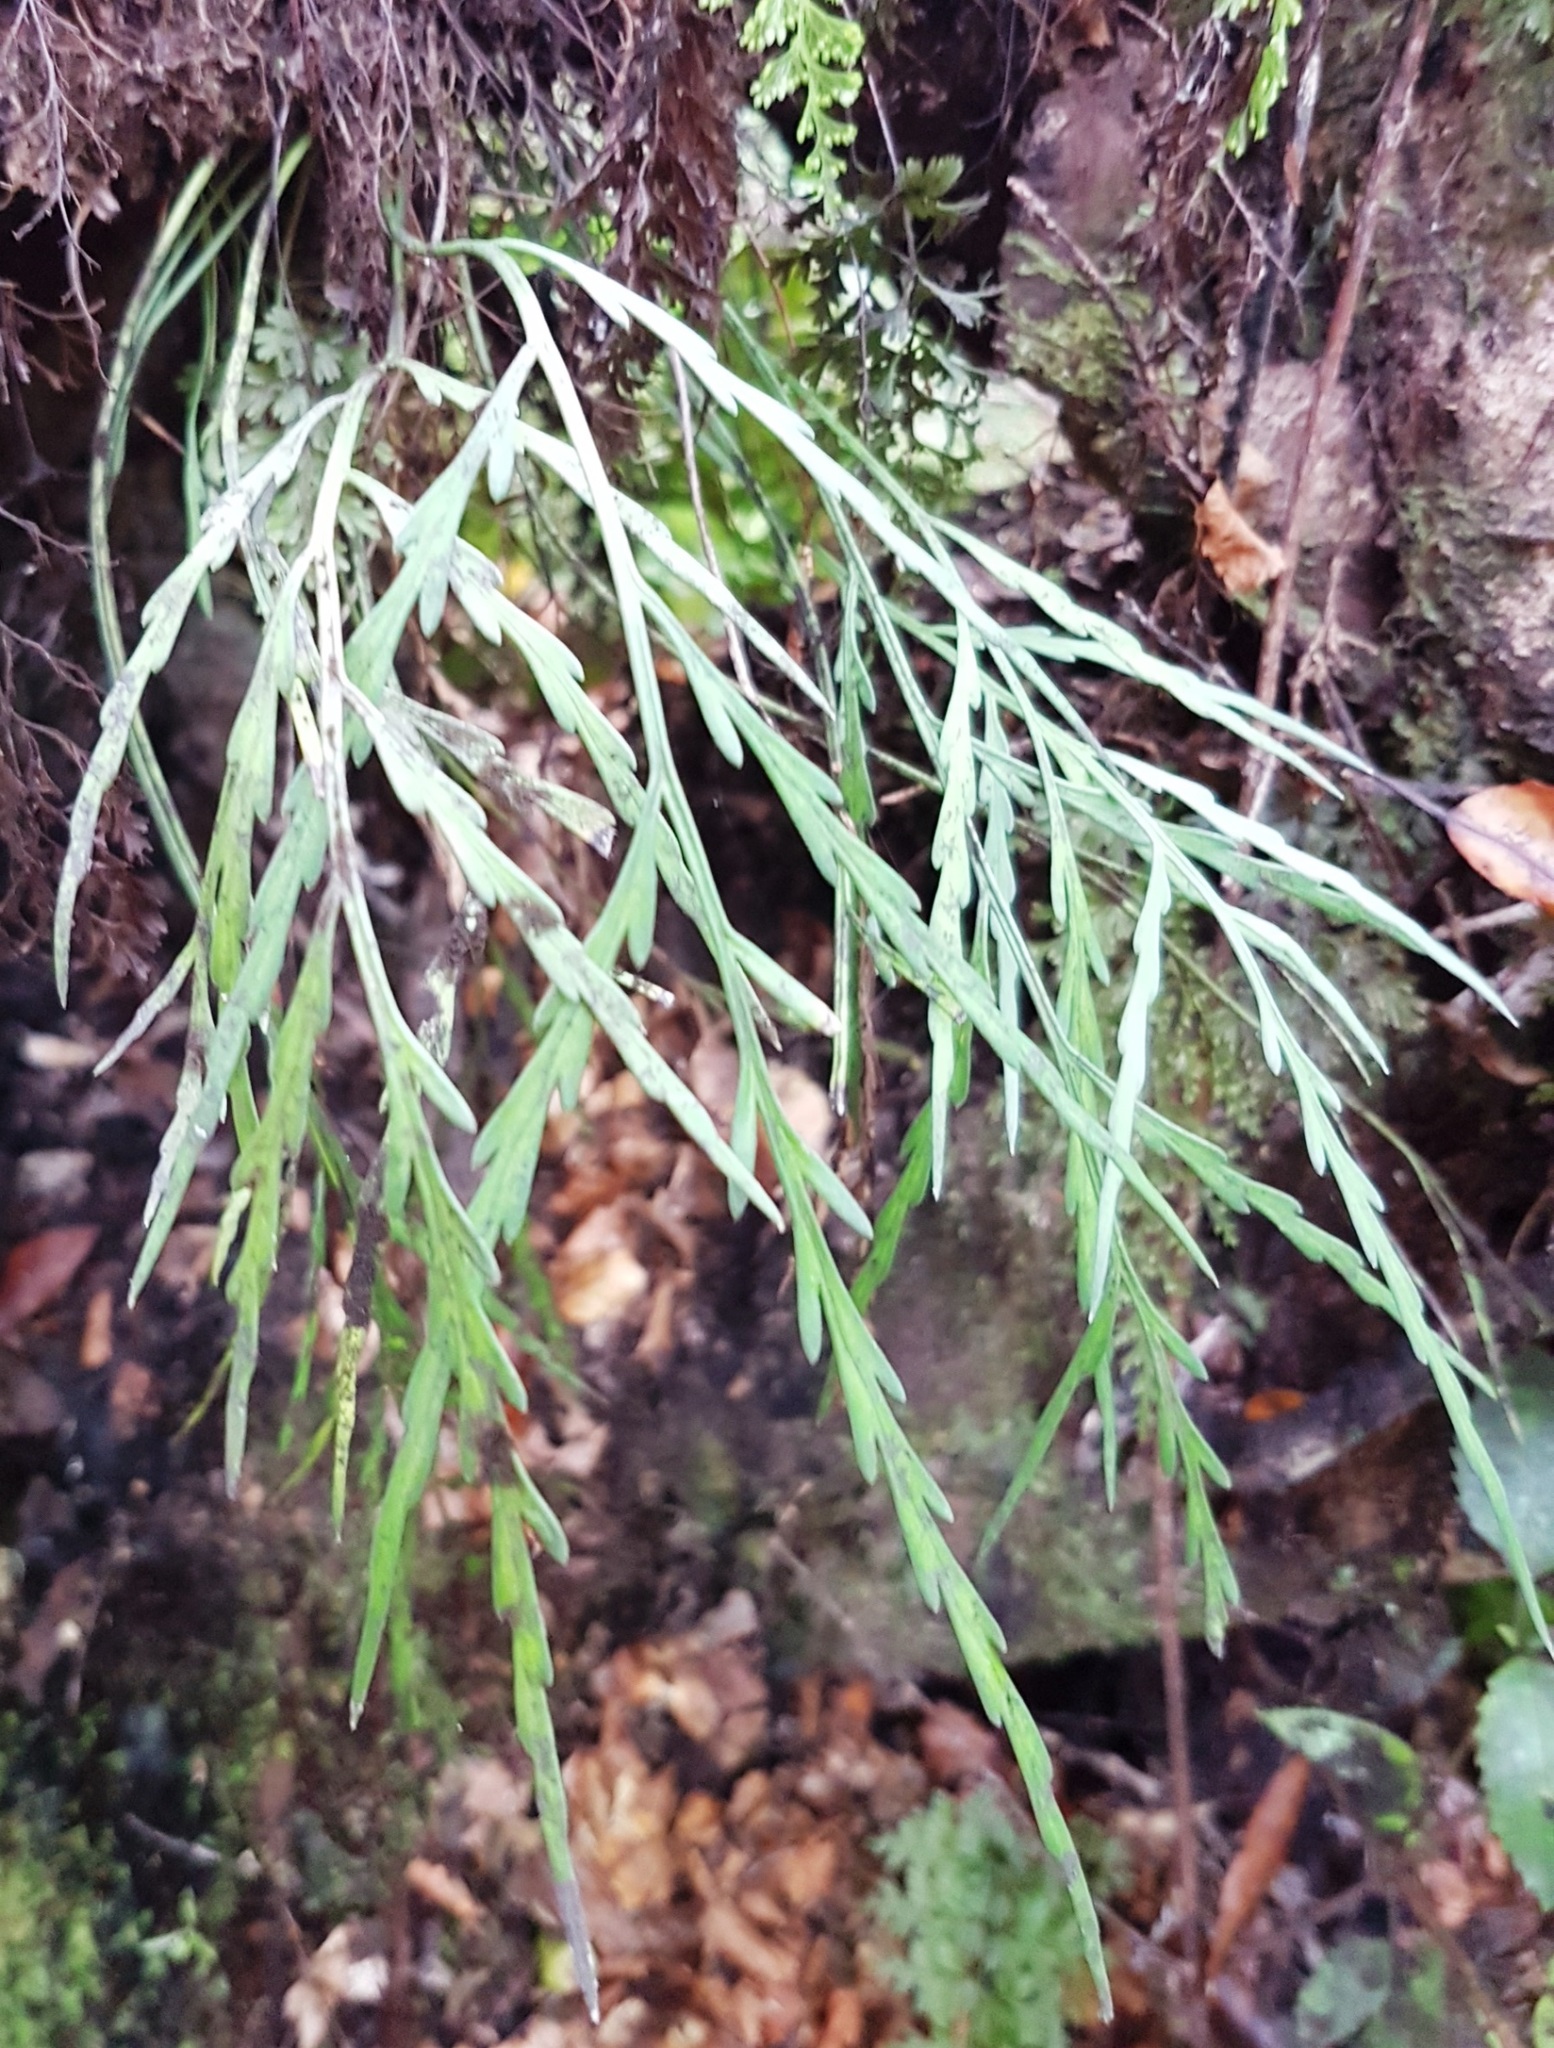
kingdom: Plantae
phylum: Tracheophyta
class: Polypodiopsida
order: Polypodiales
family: Aspleniaceae
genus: Asplenium
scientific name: Asplenium flaccidum
